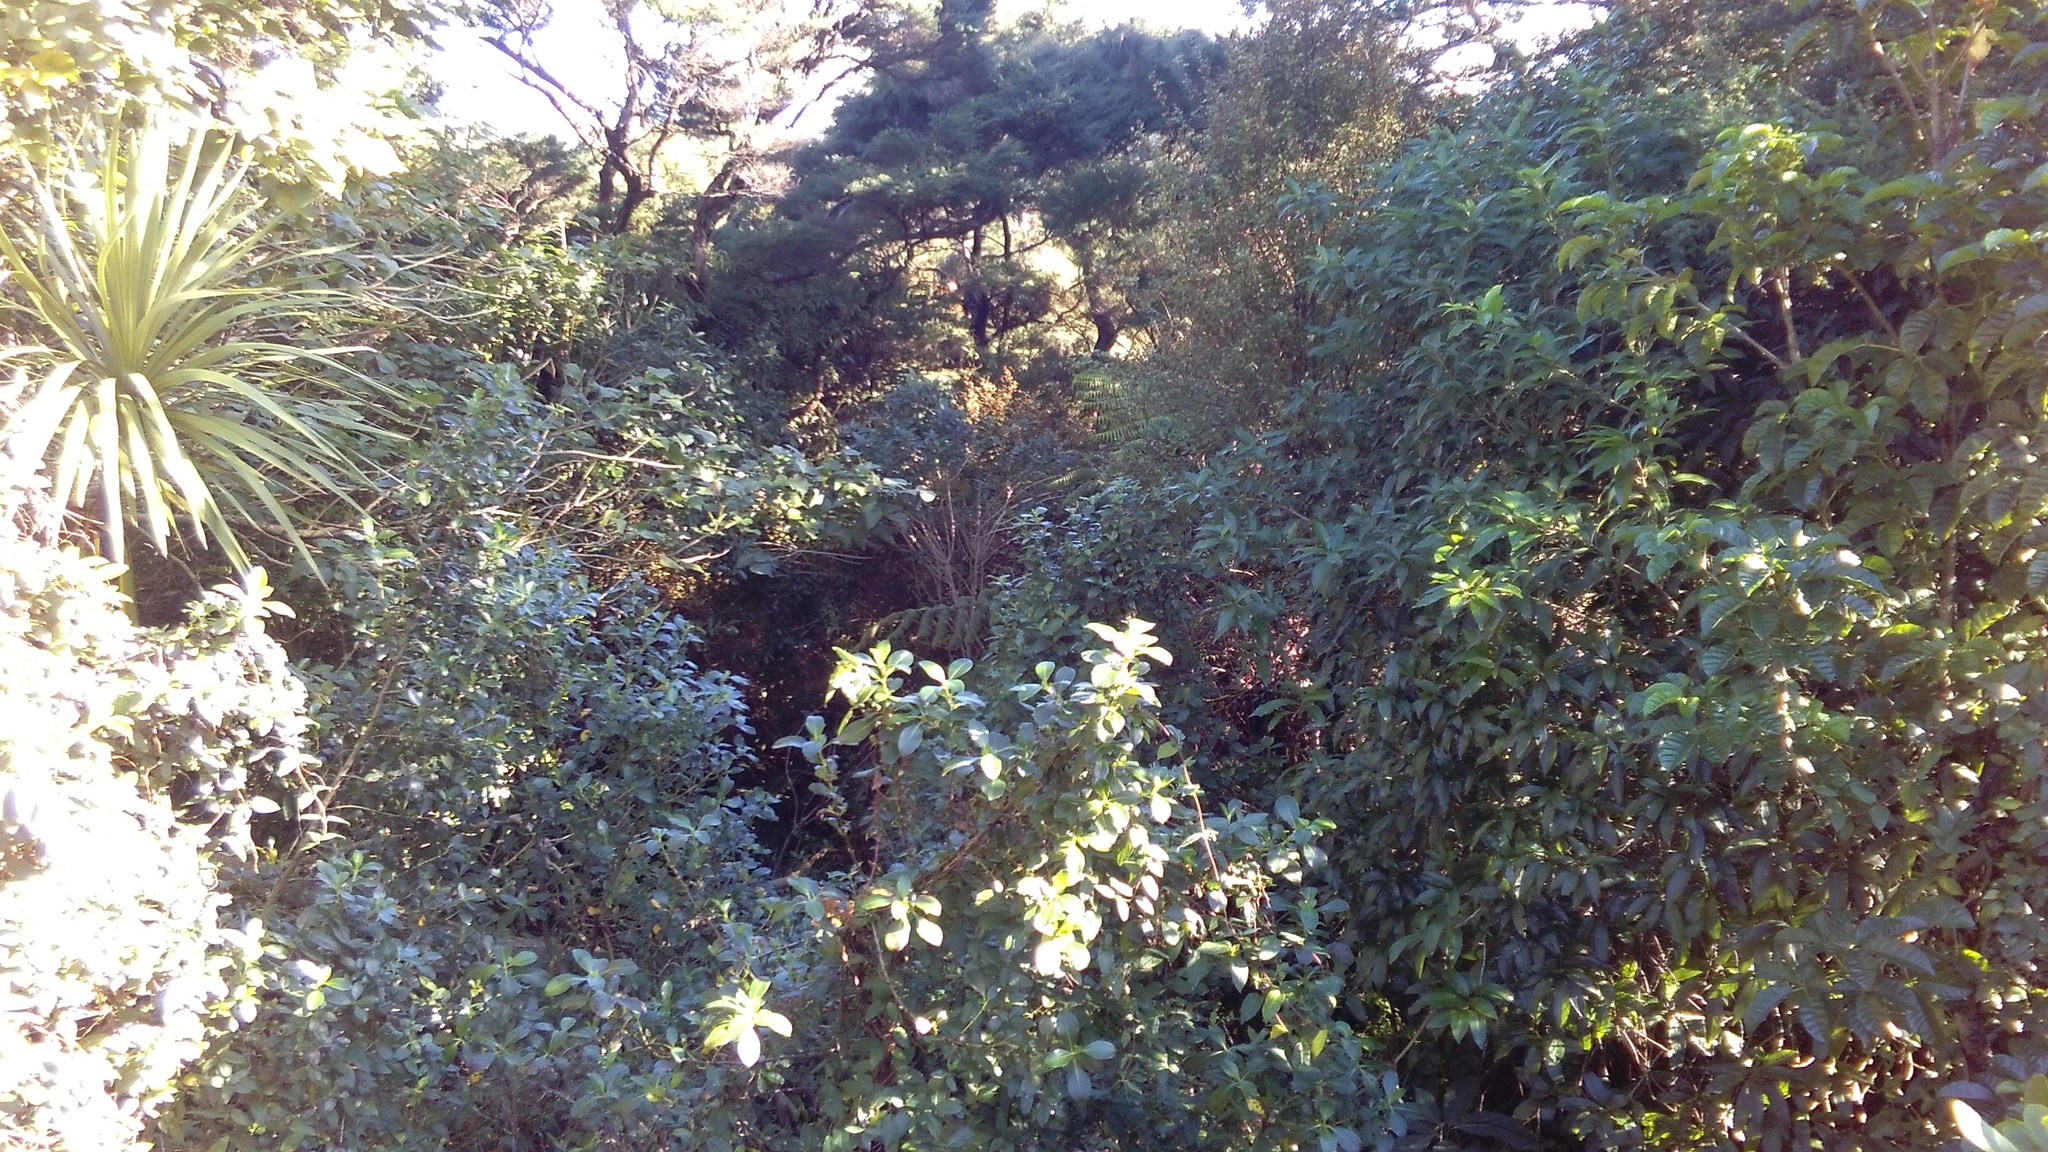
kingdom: Plantae
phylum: Tracheophyta
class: Magnoliopsida
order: Gentianales
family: Rubiaceae
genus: Coprosma
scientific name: Coprosma robusta
